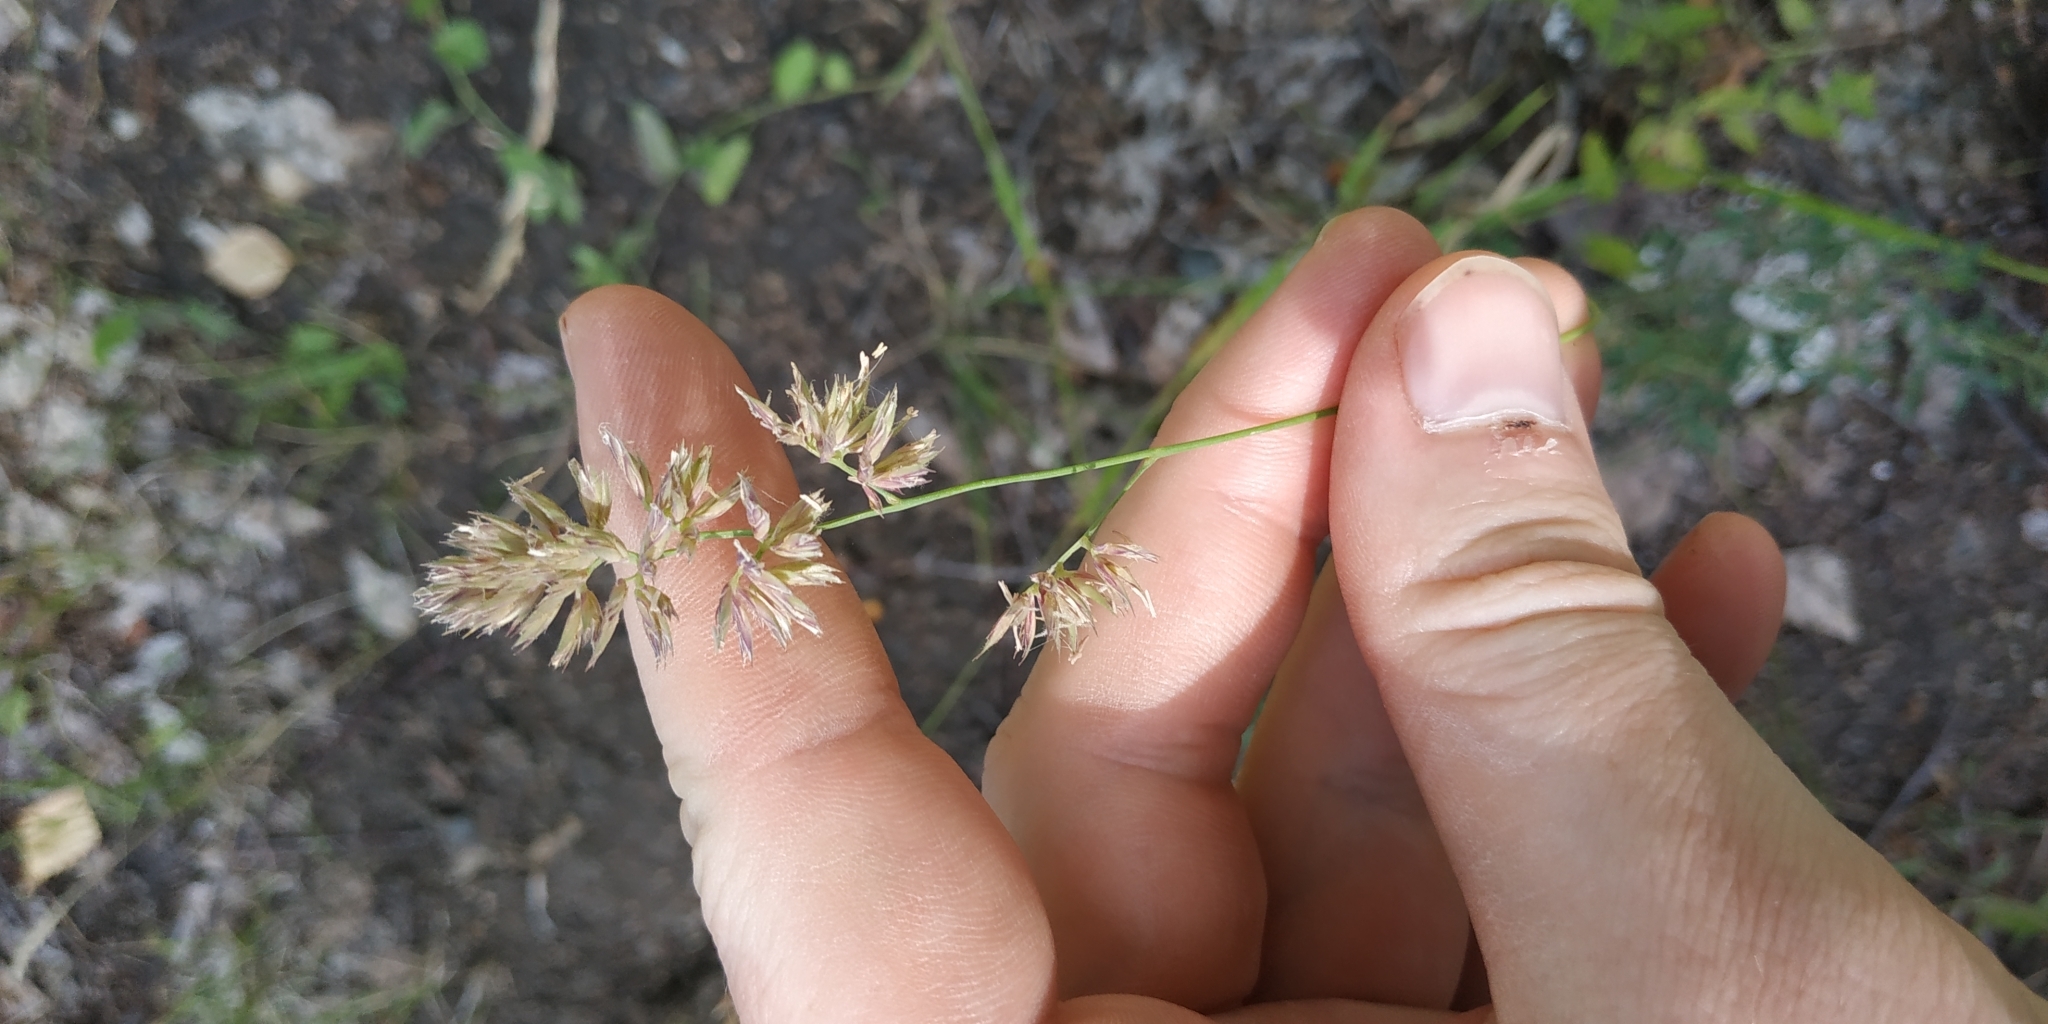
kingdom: Plantae
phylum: Tracheophyta
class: Liliopsida
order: Poales
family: Poaceae
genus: Dactylis
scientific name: Dactylis glomerata
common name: Orchardgrass
